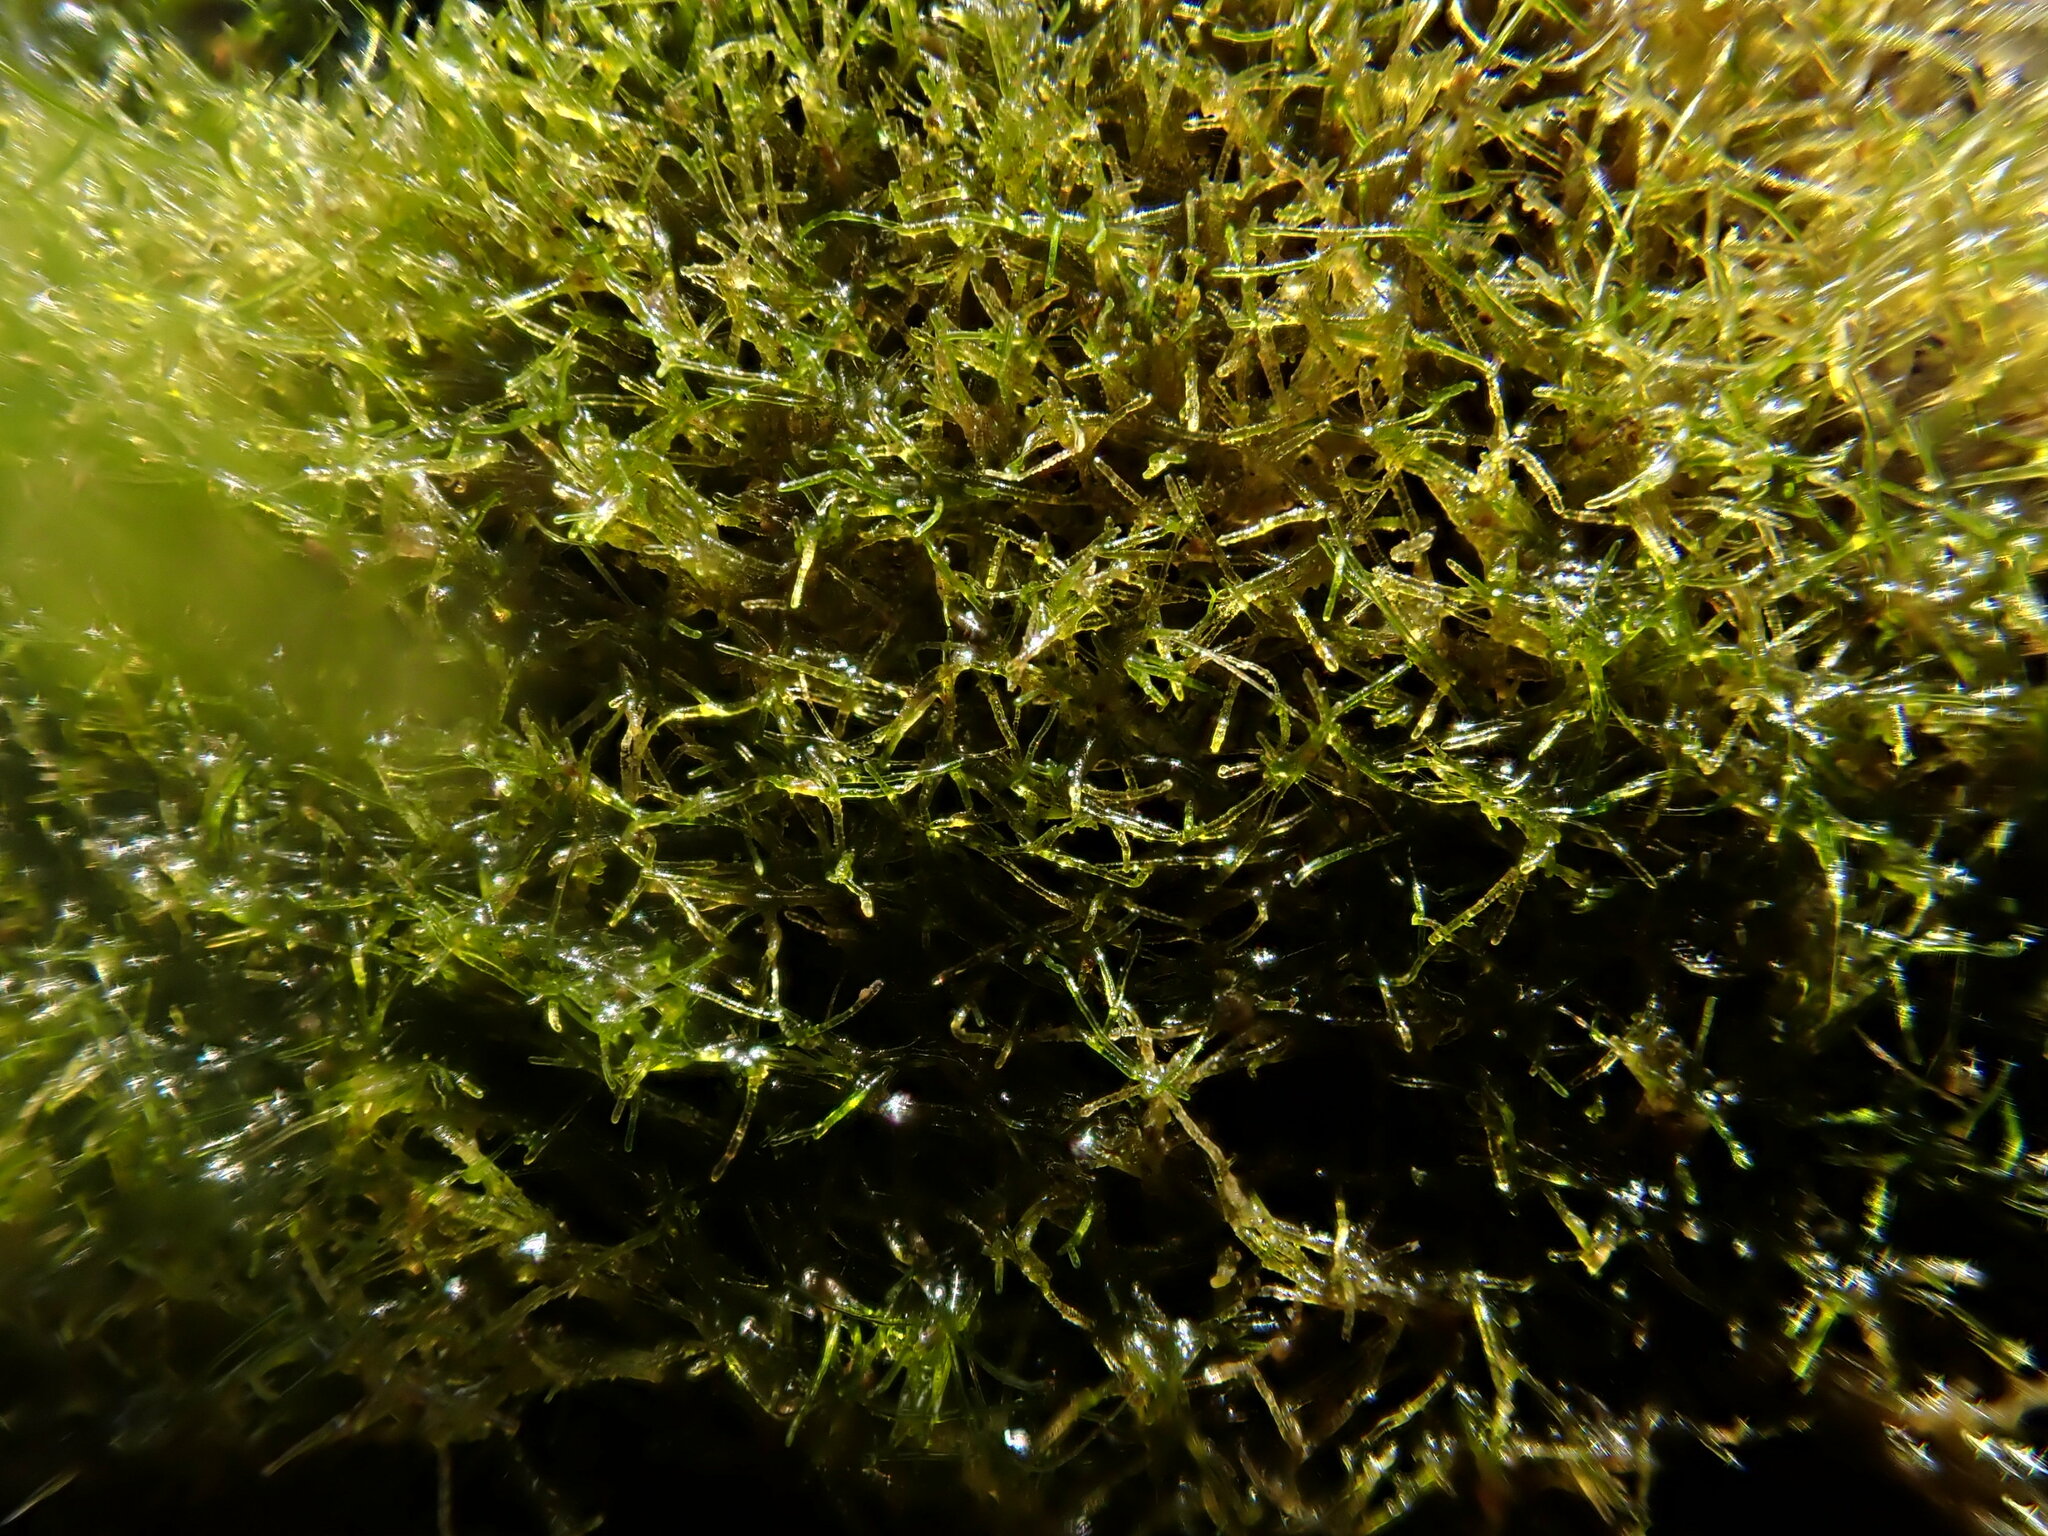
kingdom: Plantae
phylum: Chlorophyta
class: Ulvophyceae
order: Cladophorales
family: Cladophoraceae
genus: Cladophora
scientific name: Cladophora glomerata
